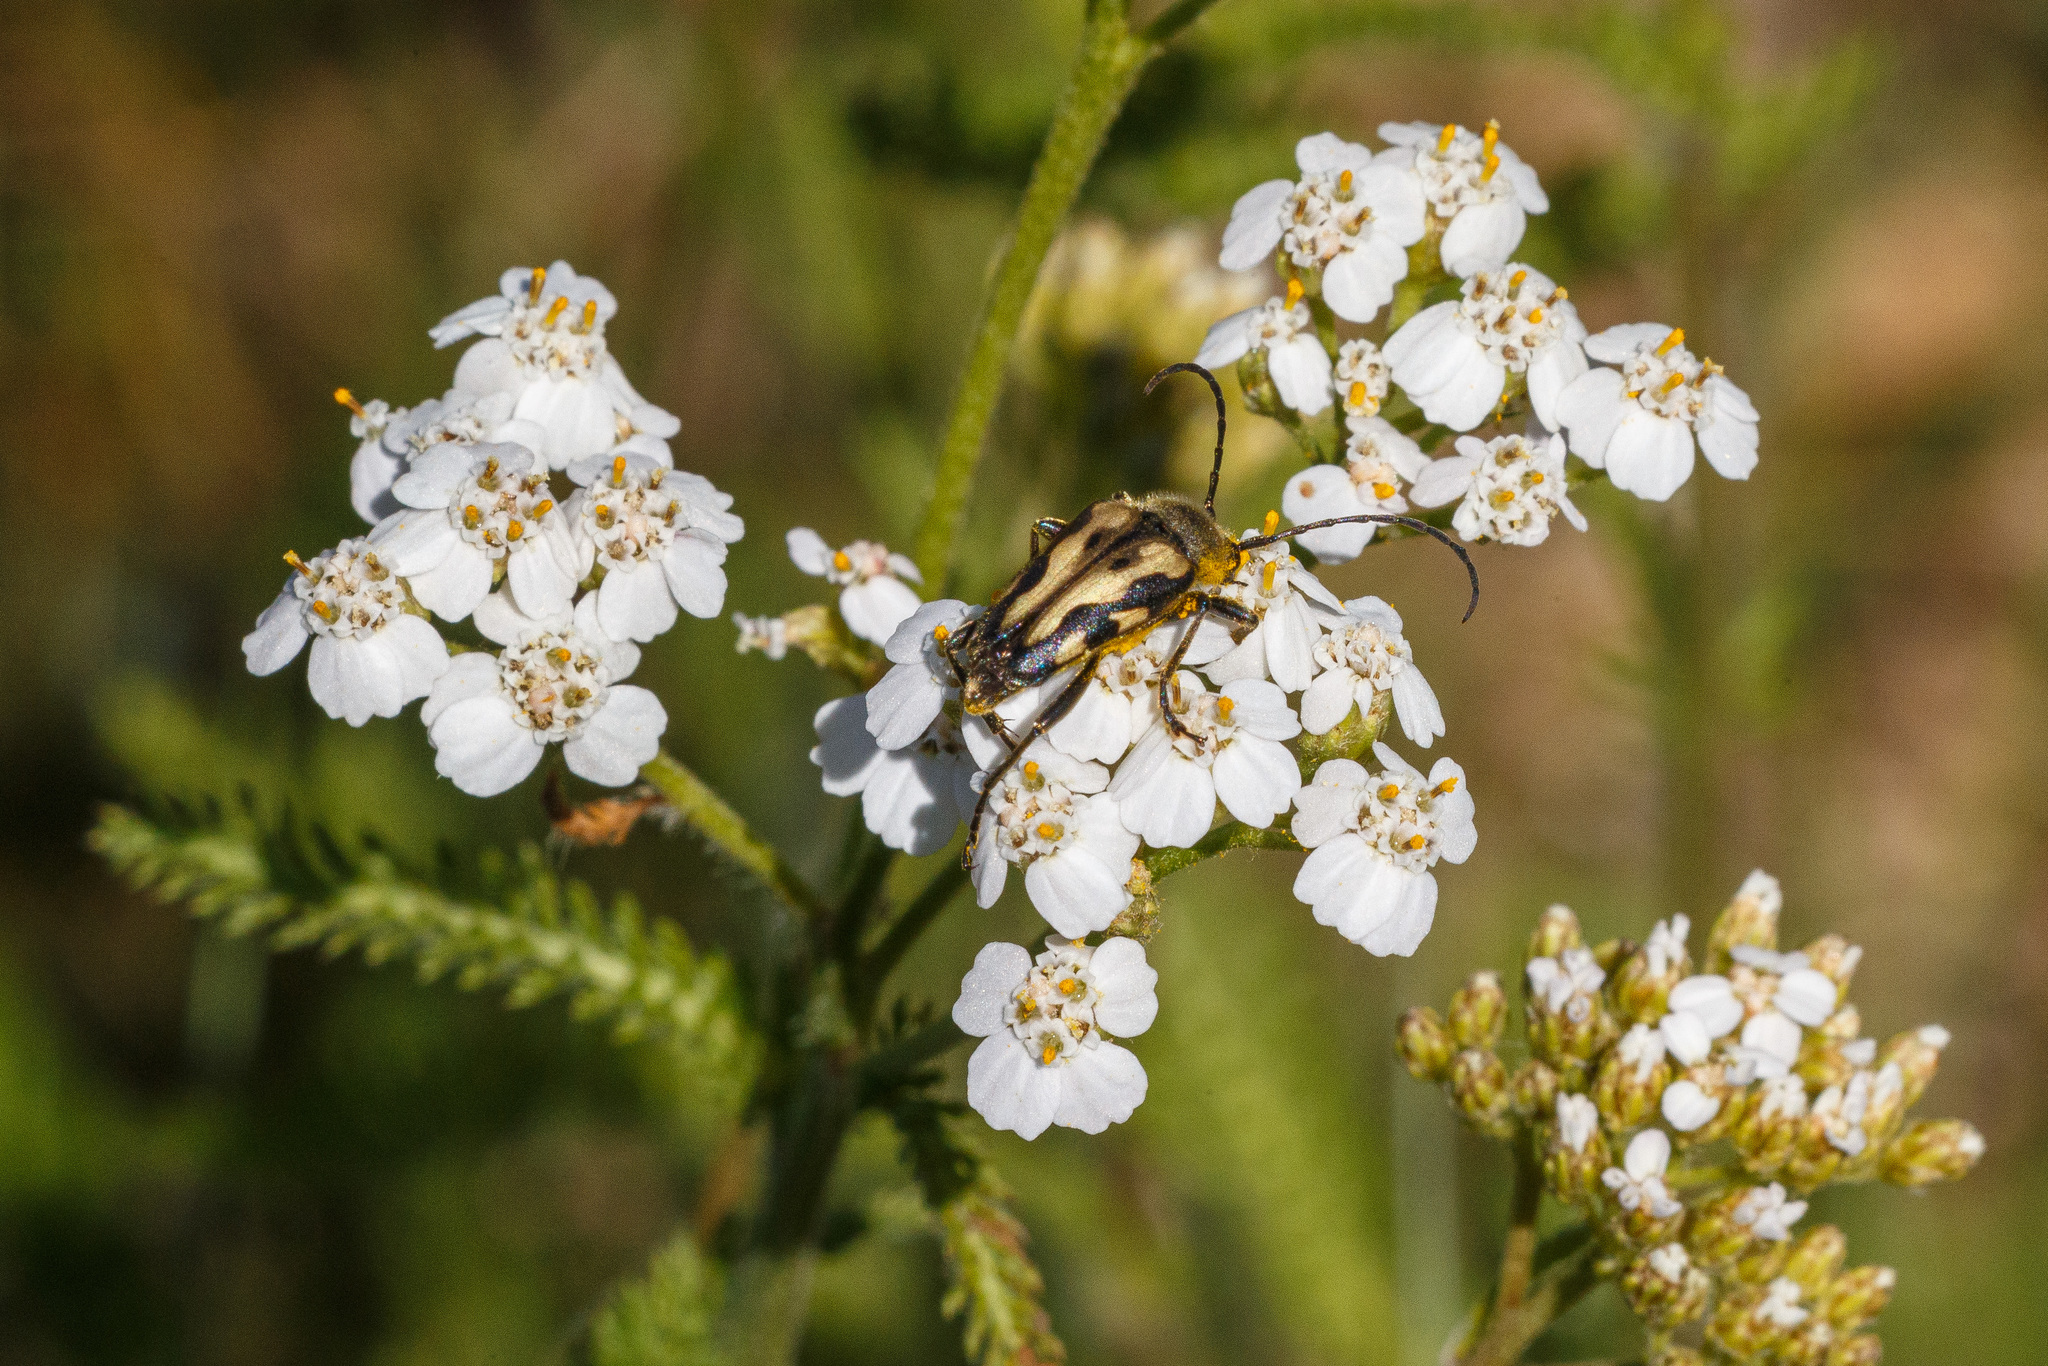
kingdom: Animalia
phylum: Arthropoda
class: Insecta
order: Coleoptera
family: Cerambycidae
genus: Judolia
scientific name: Judolia montivagans
